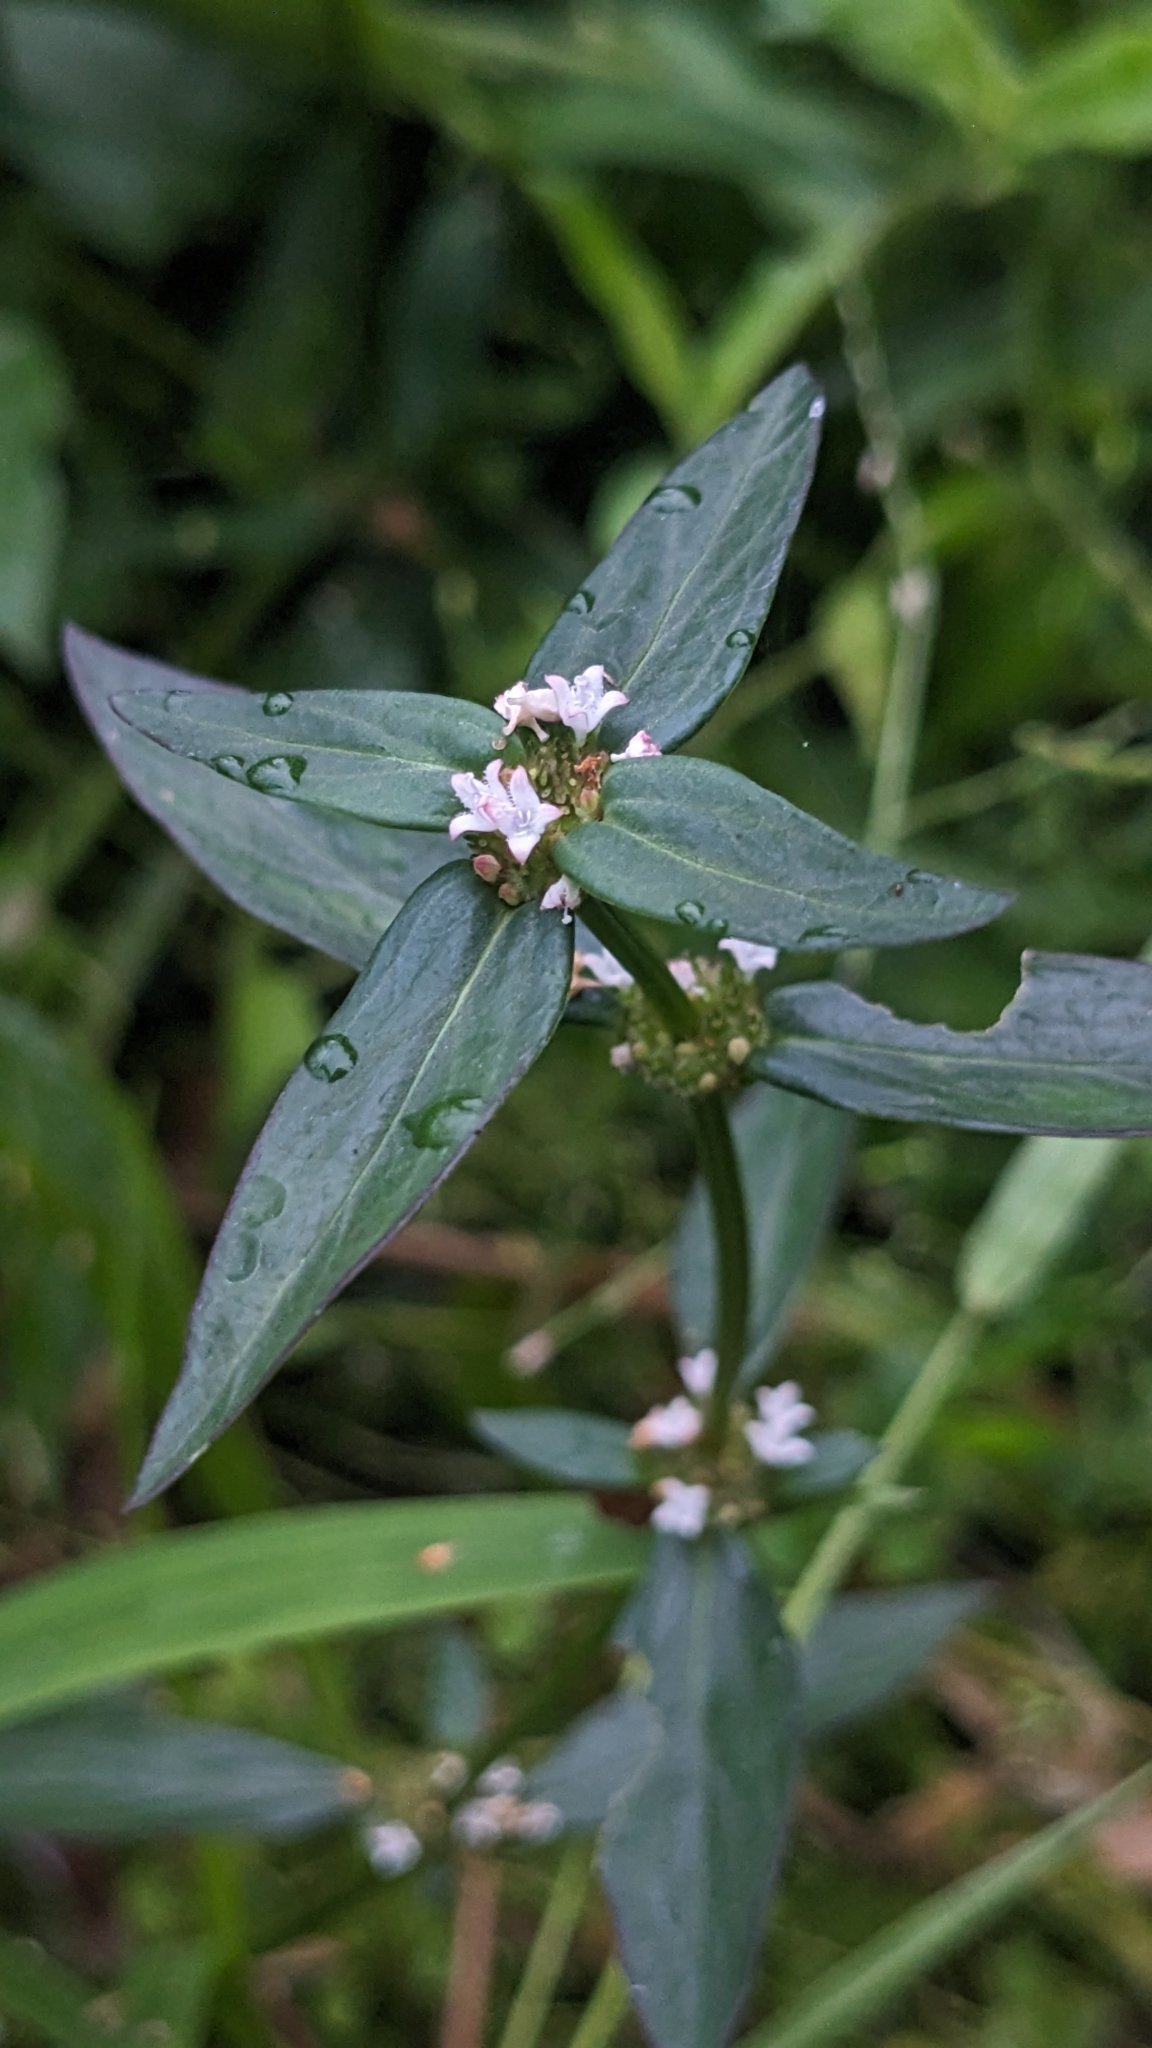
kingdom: Plantae
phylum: Tracheophyta
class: Magnoliopsida
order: Gentianales
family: Rubiaceae
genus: Spermacoce
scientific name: Spermacoce remota
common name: Woodland false buttonweed
